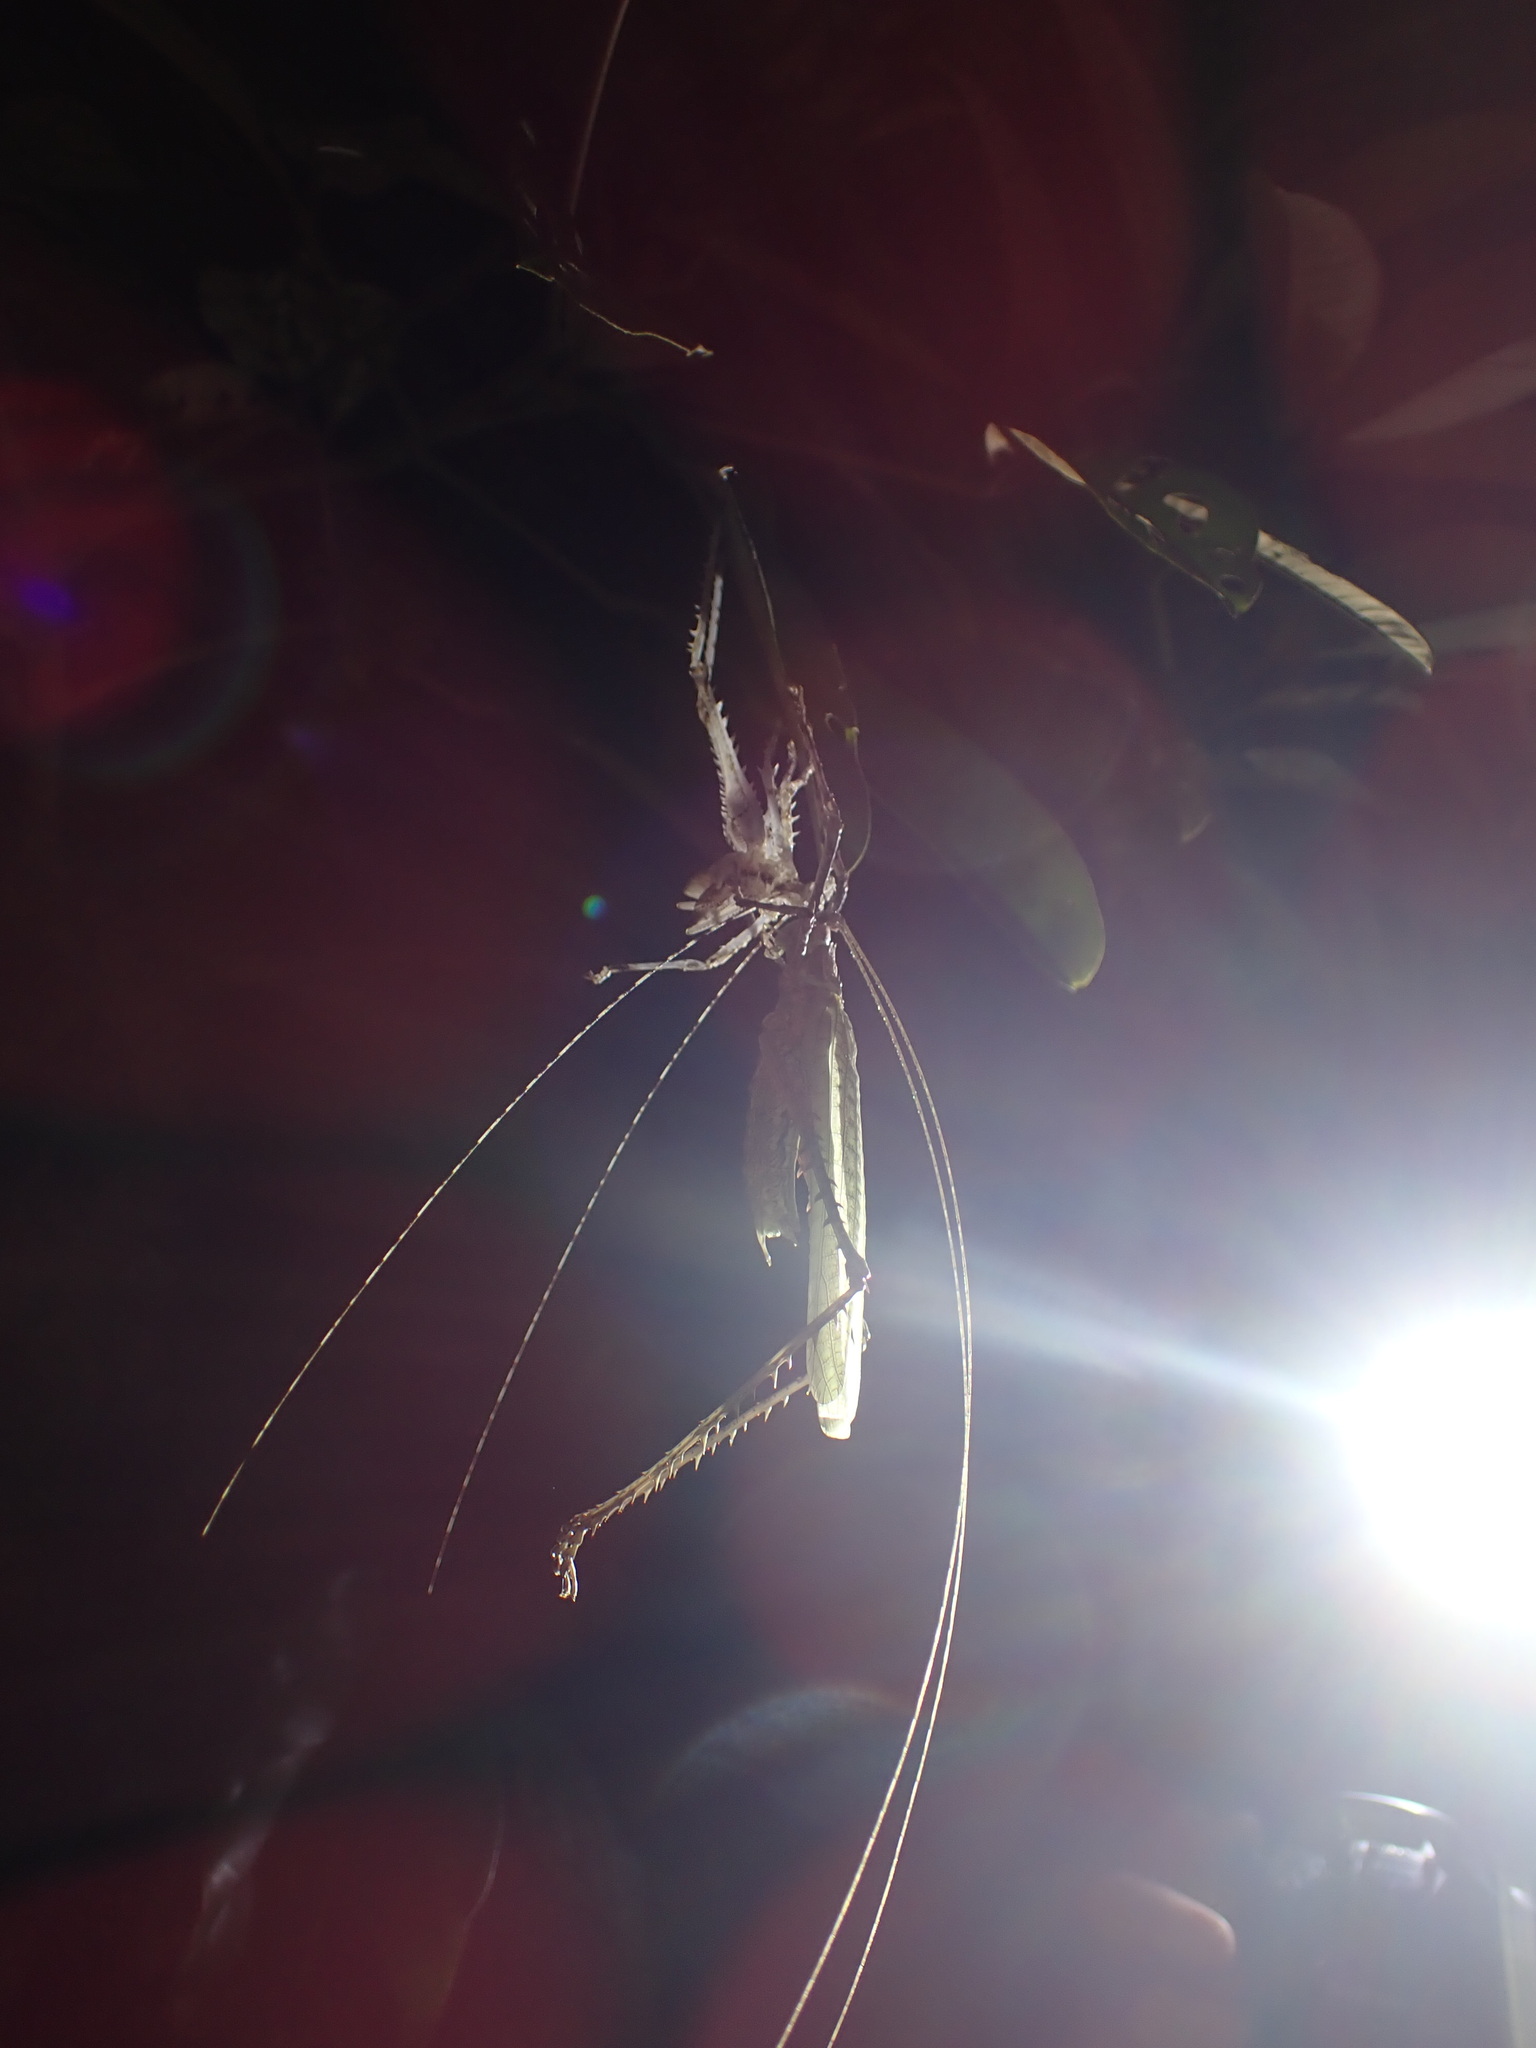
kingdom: Animalia
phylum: Arthropoda
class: Insecta
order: Orthoptera
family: Tettigoniidae
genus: Phricta
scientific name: Phricta spinosa
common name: Giant spiny forest katydid
